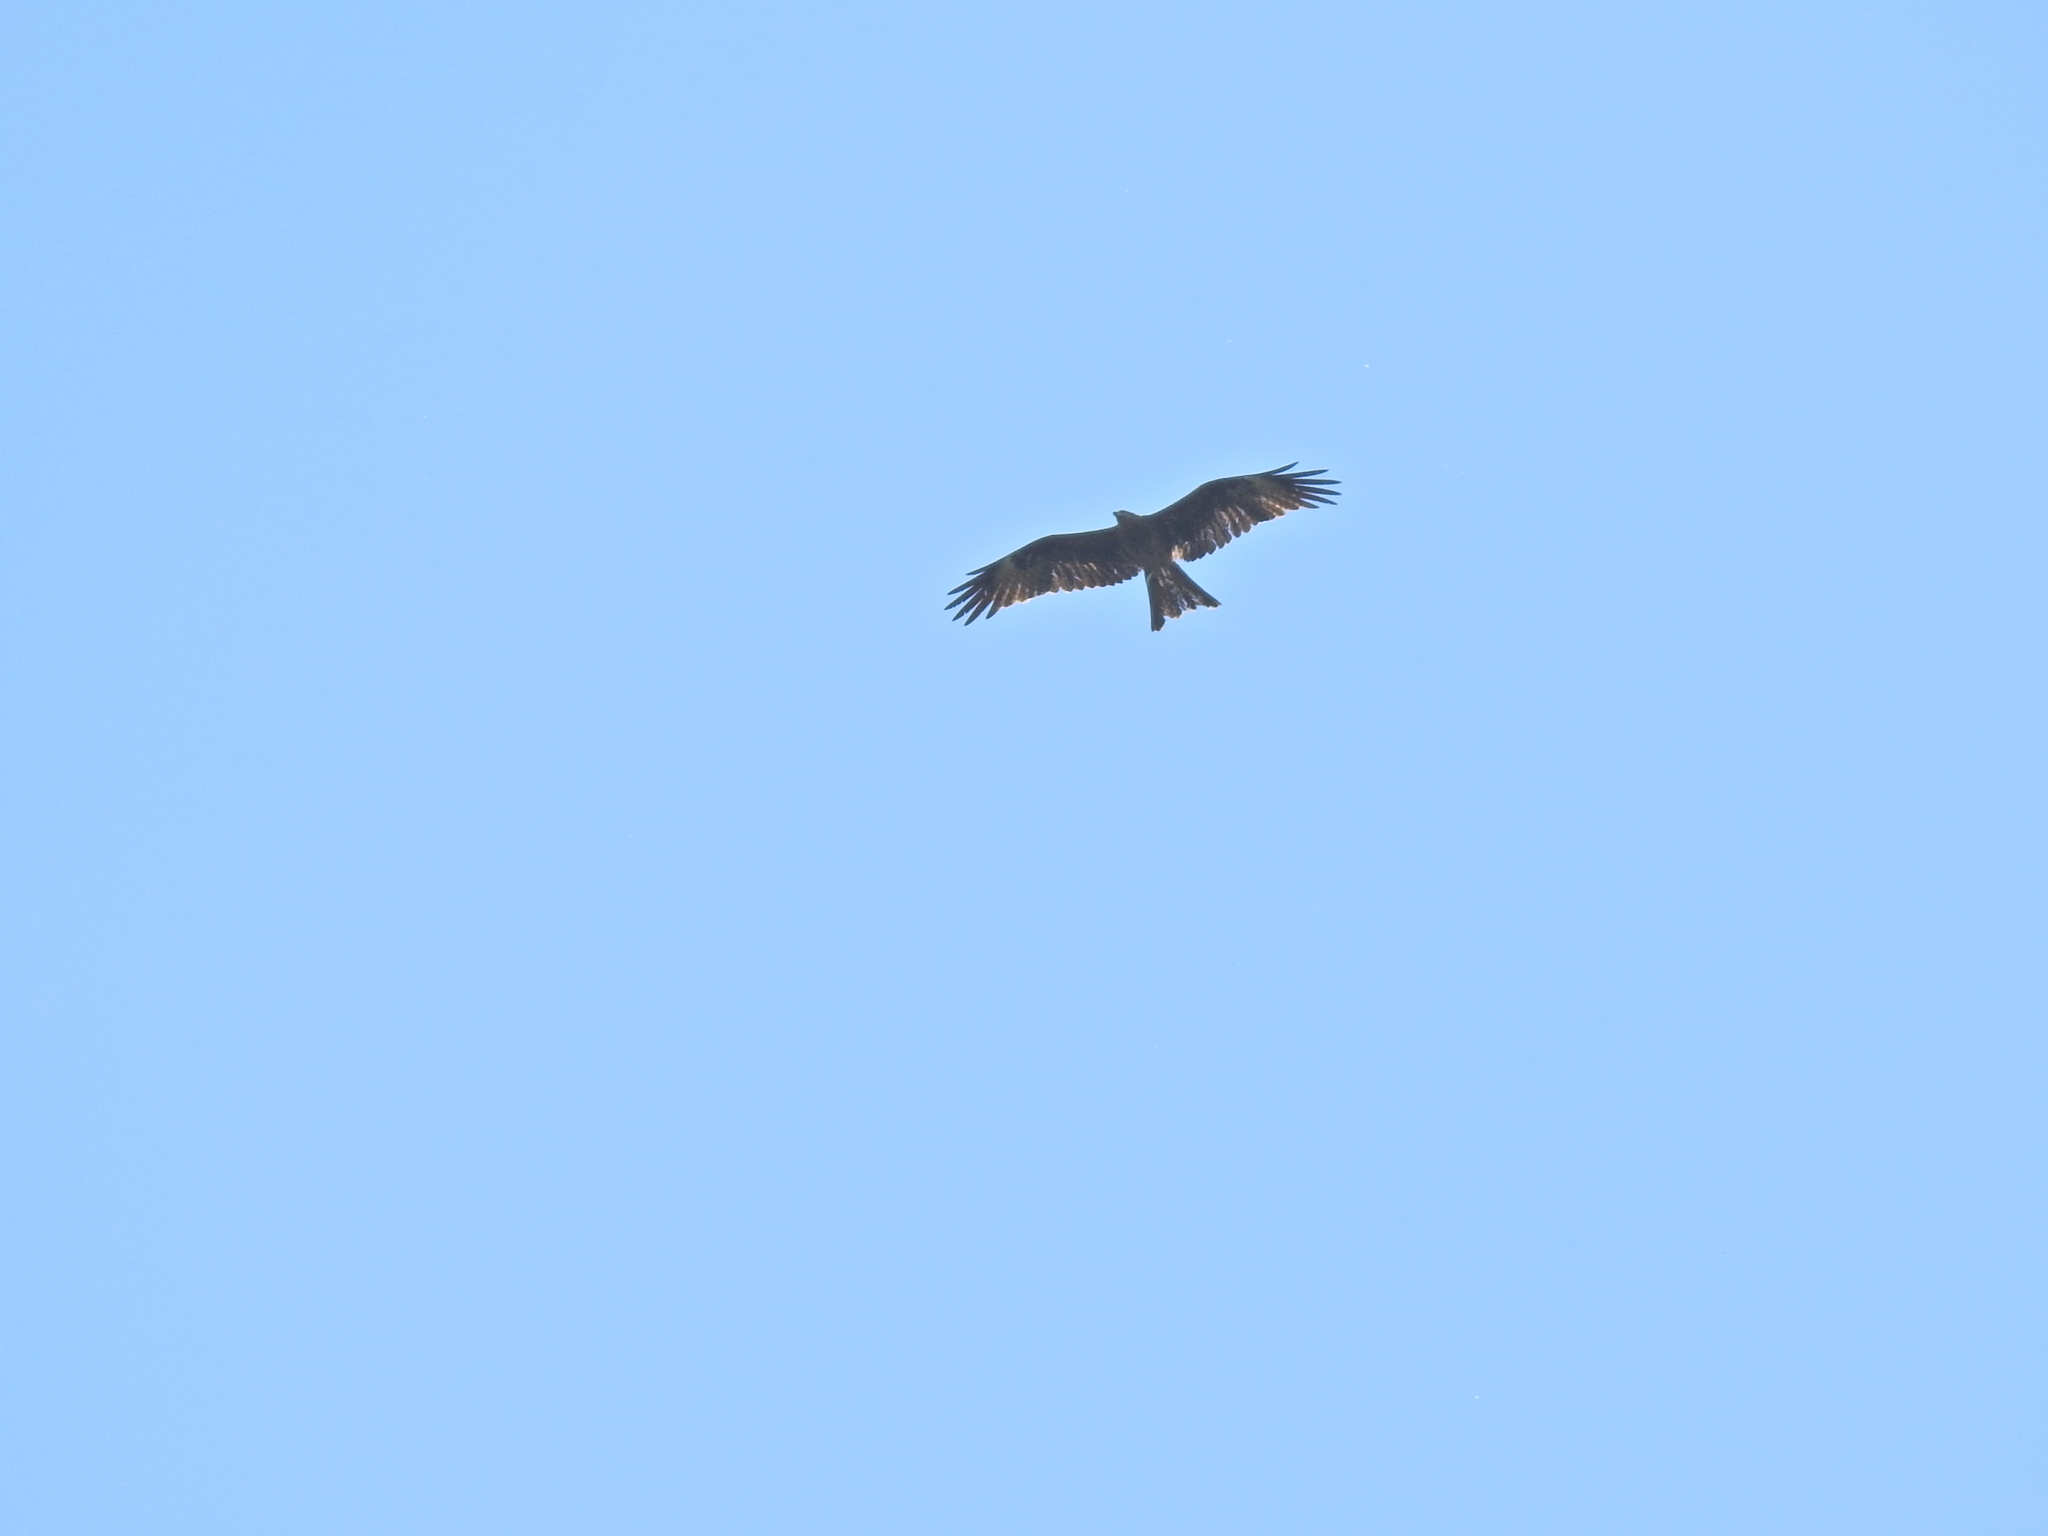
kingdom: Animalia
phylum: Chordata
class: Aves
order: Accipitriformes
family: Accipitridae
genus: Milvus
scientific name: Milvus migrans
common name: Black kite
